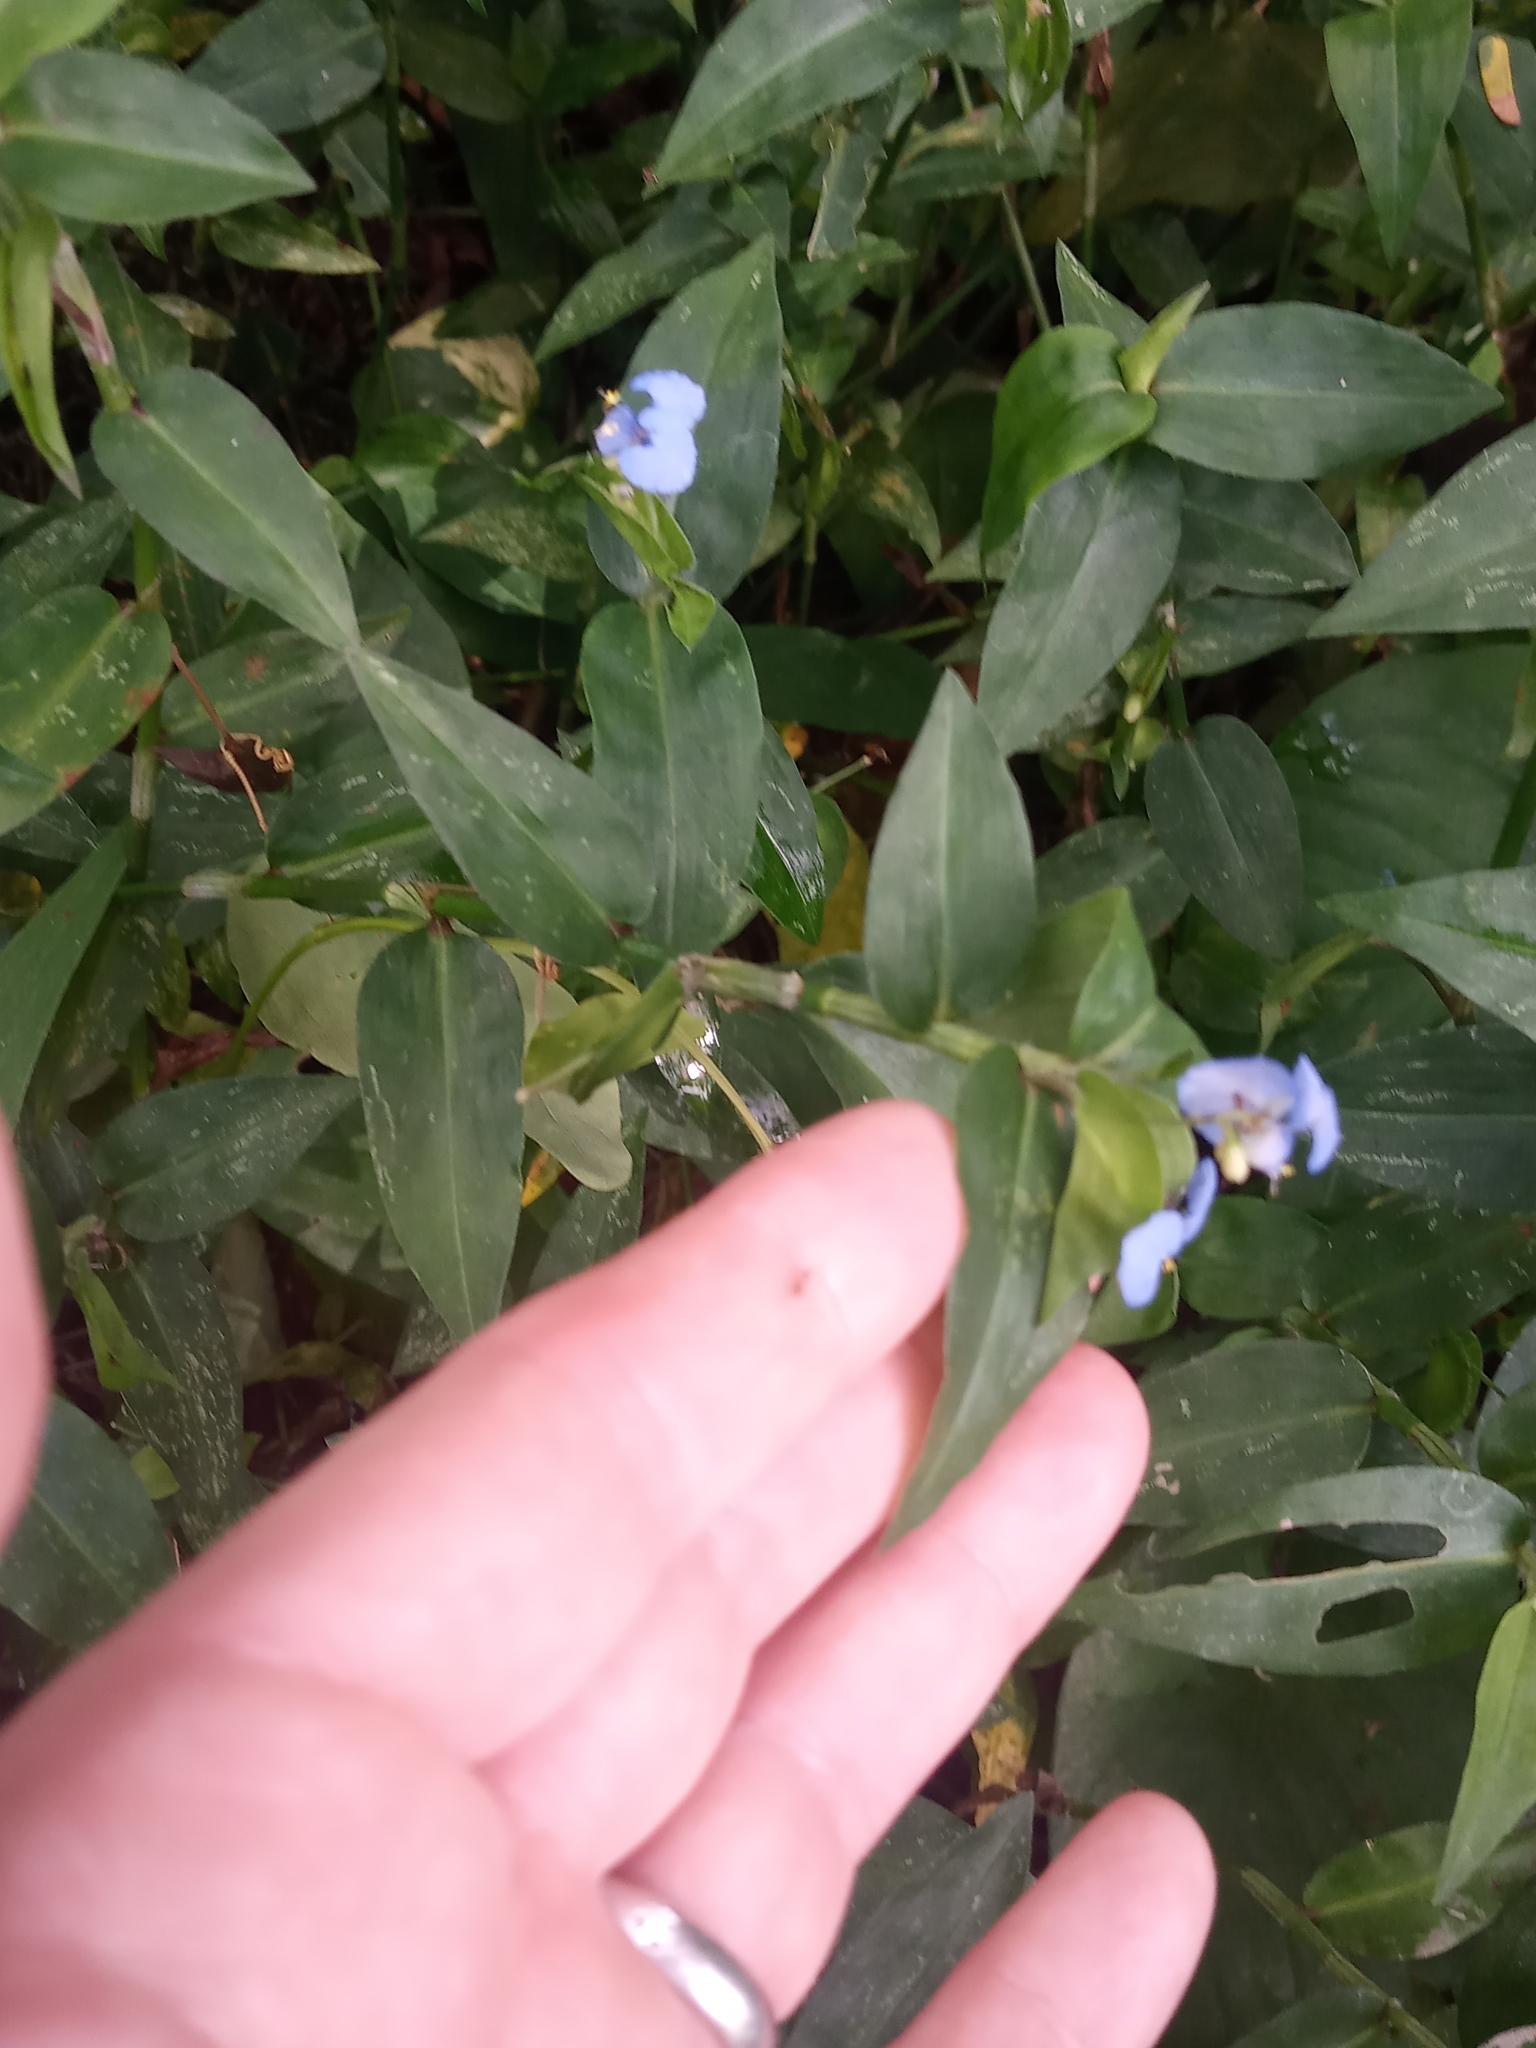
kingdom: Plantae
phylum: Tracheophyta
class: Liliopsida
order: Commelinales
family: Commelinaceae
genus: Commelina
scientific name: Commelina diffusa
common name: Climbing dayflower
